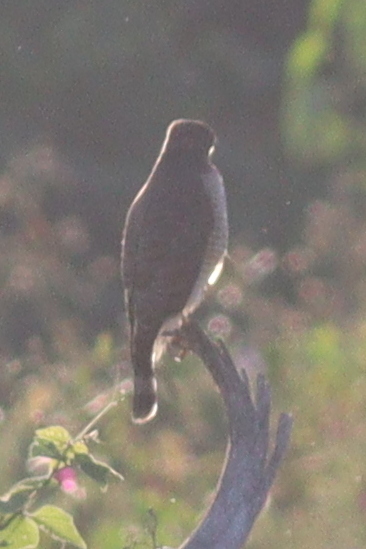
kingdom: Animalia
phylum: Chordata
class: Aves
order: Accipitriformes
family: Accipitridae
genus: Rupornis
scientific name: Rupornis magnirostris
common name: Roadside hawk
